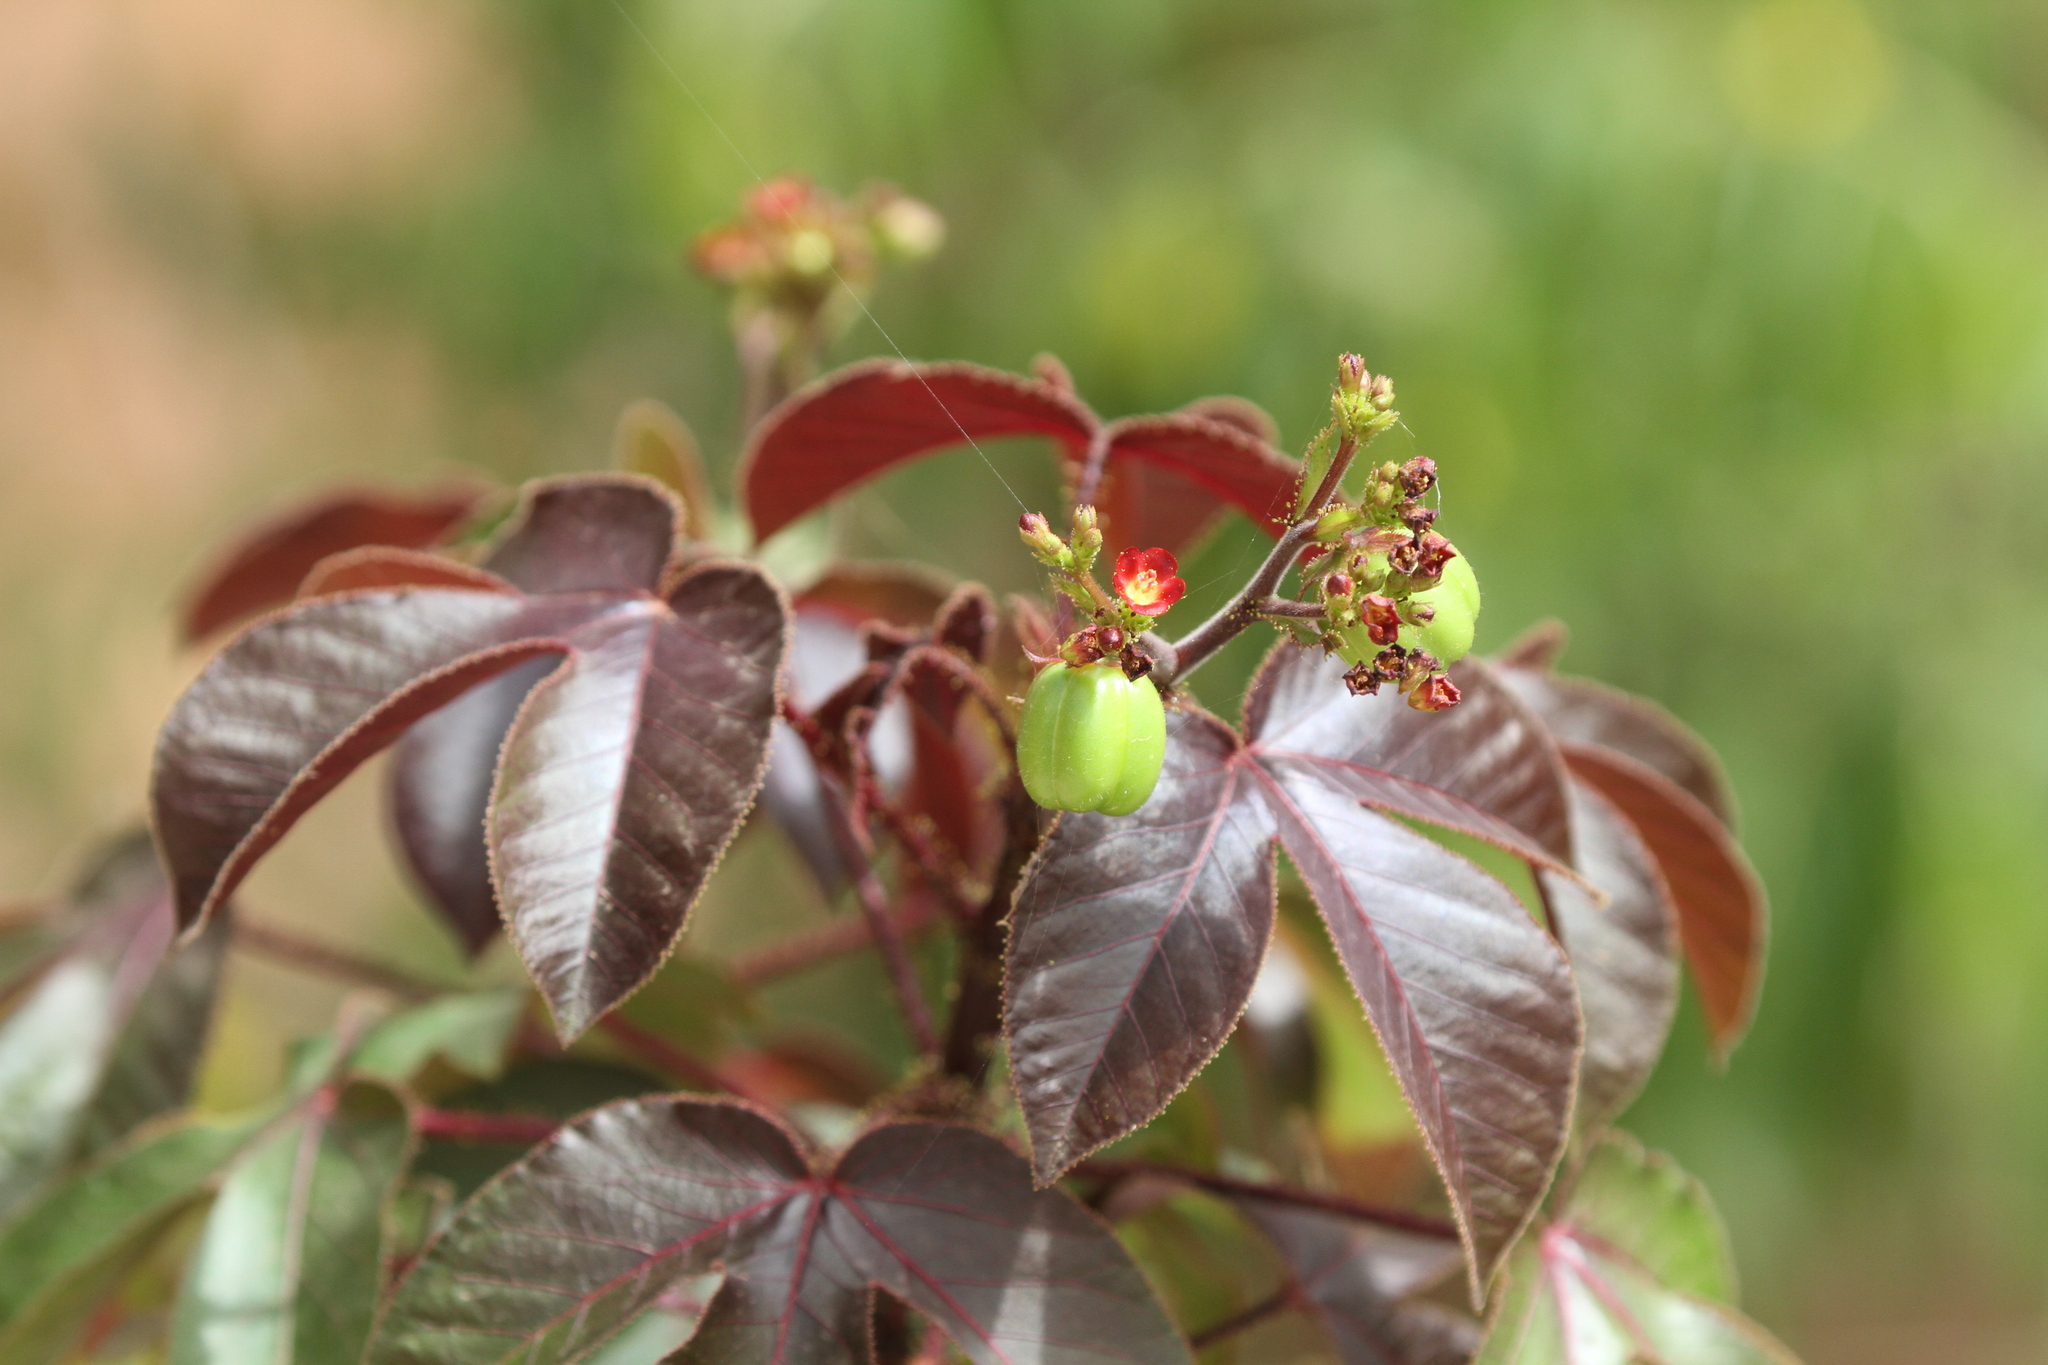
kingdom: Plantae
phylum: Tracheophyta
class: Magnoliopsida
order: Malpighiales
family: Euphorbiaceae
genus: Jatropha
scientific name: Jatropha gossypiifolia
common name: Bellyache bush
